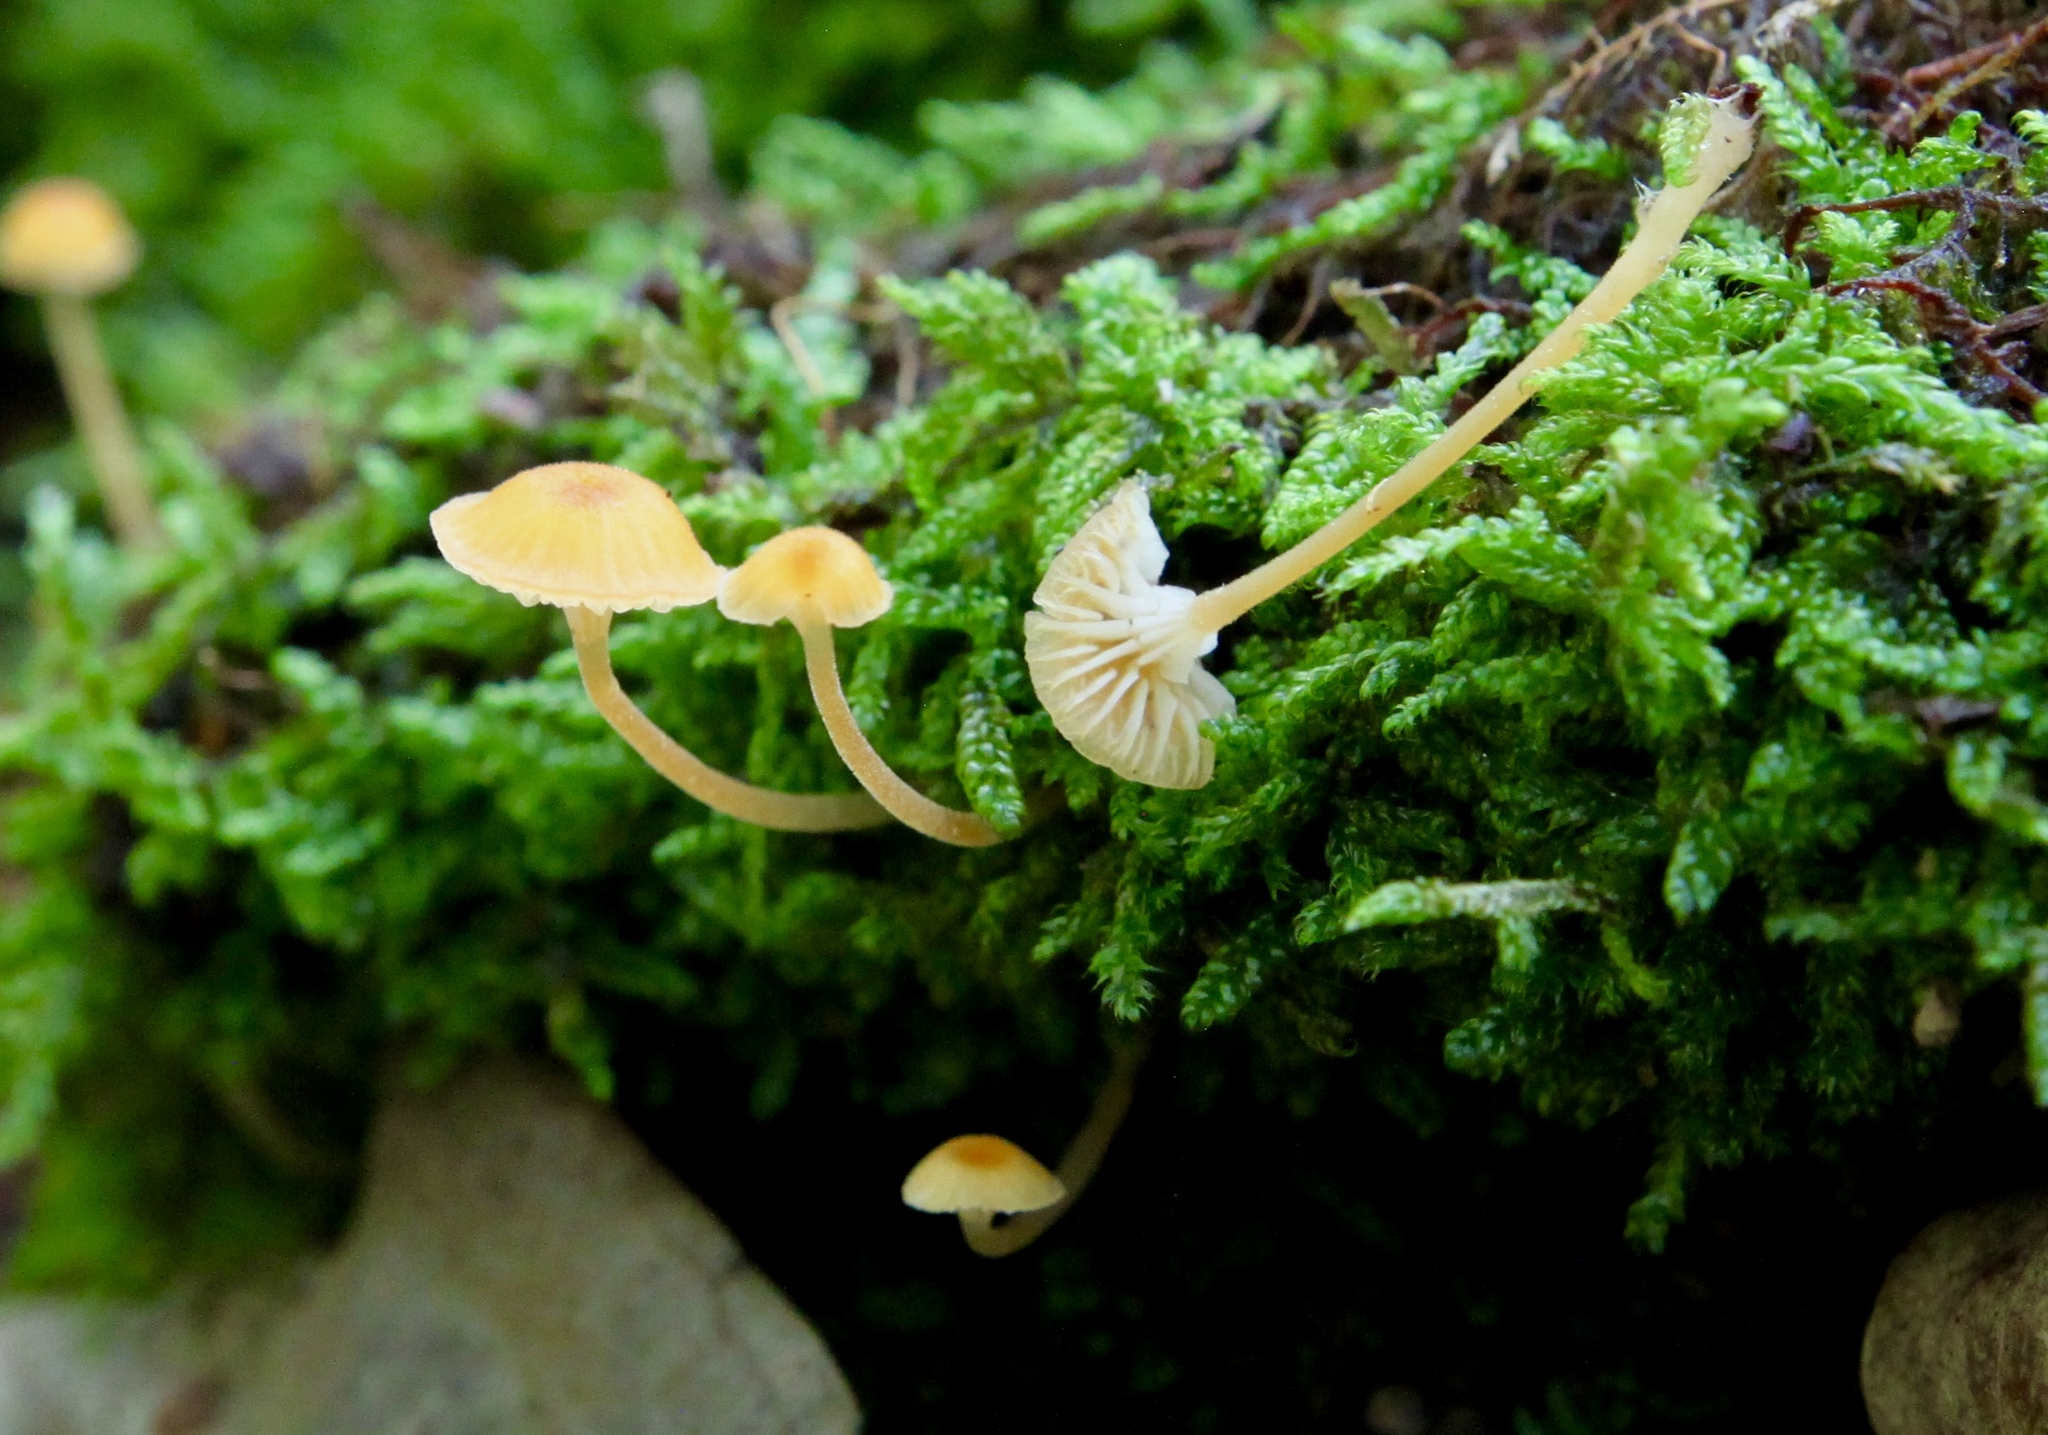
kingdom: Fungi
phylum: Basidiomycota
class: Agaricomycetes
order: Hymenochaetales
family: Rickenellaceae
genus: Rickenella
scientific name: Rickenella fibula
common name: Orange mosscap
